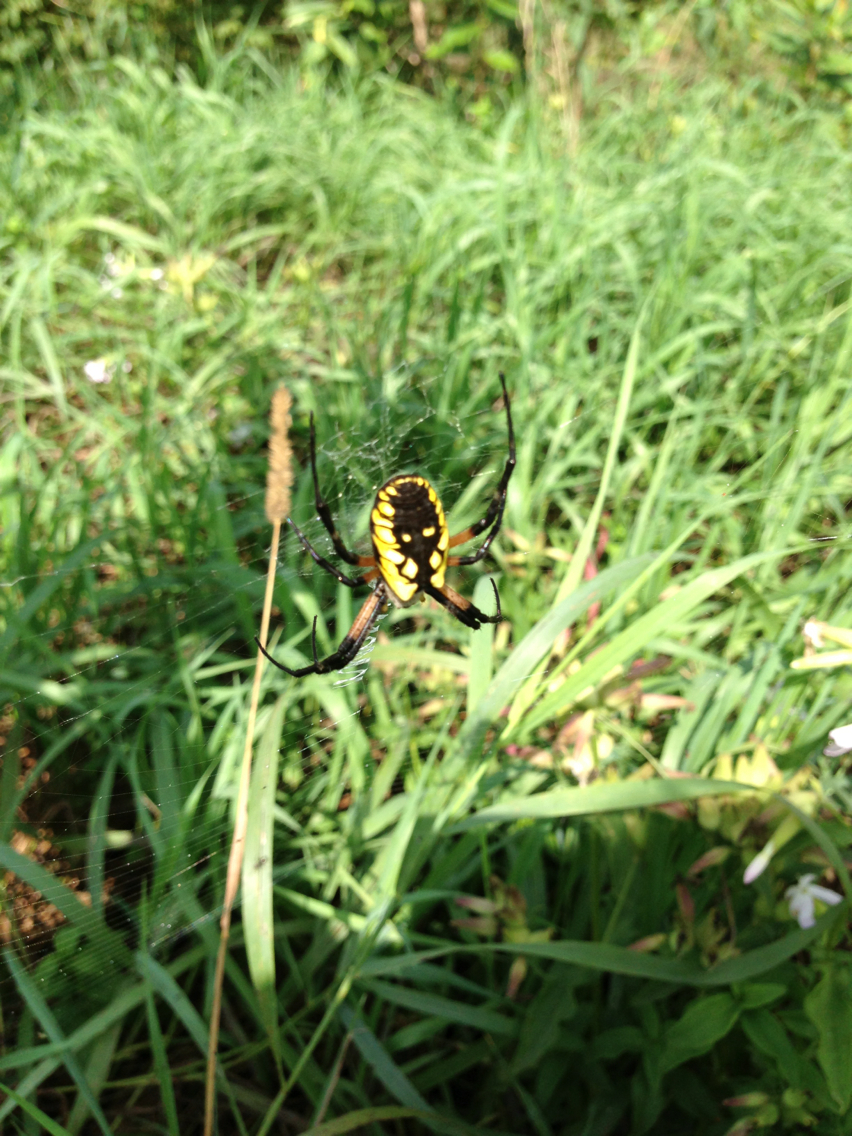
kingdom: Animalia
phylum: Arthropoda
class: Arachnida
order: Araneae
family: Araneidae
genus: Argiope
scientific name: Argiope aurantia
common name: Orb weavers
